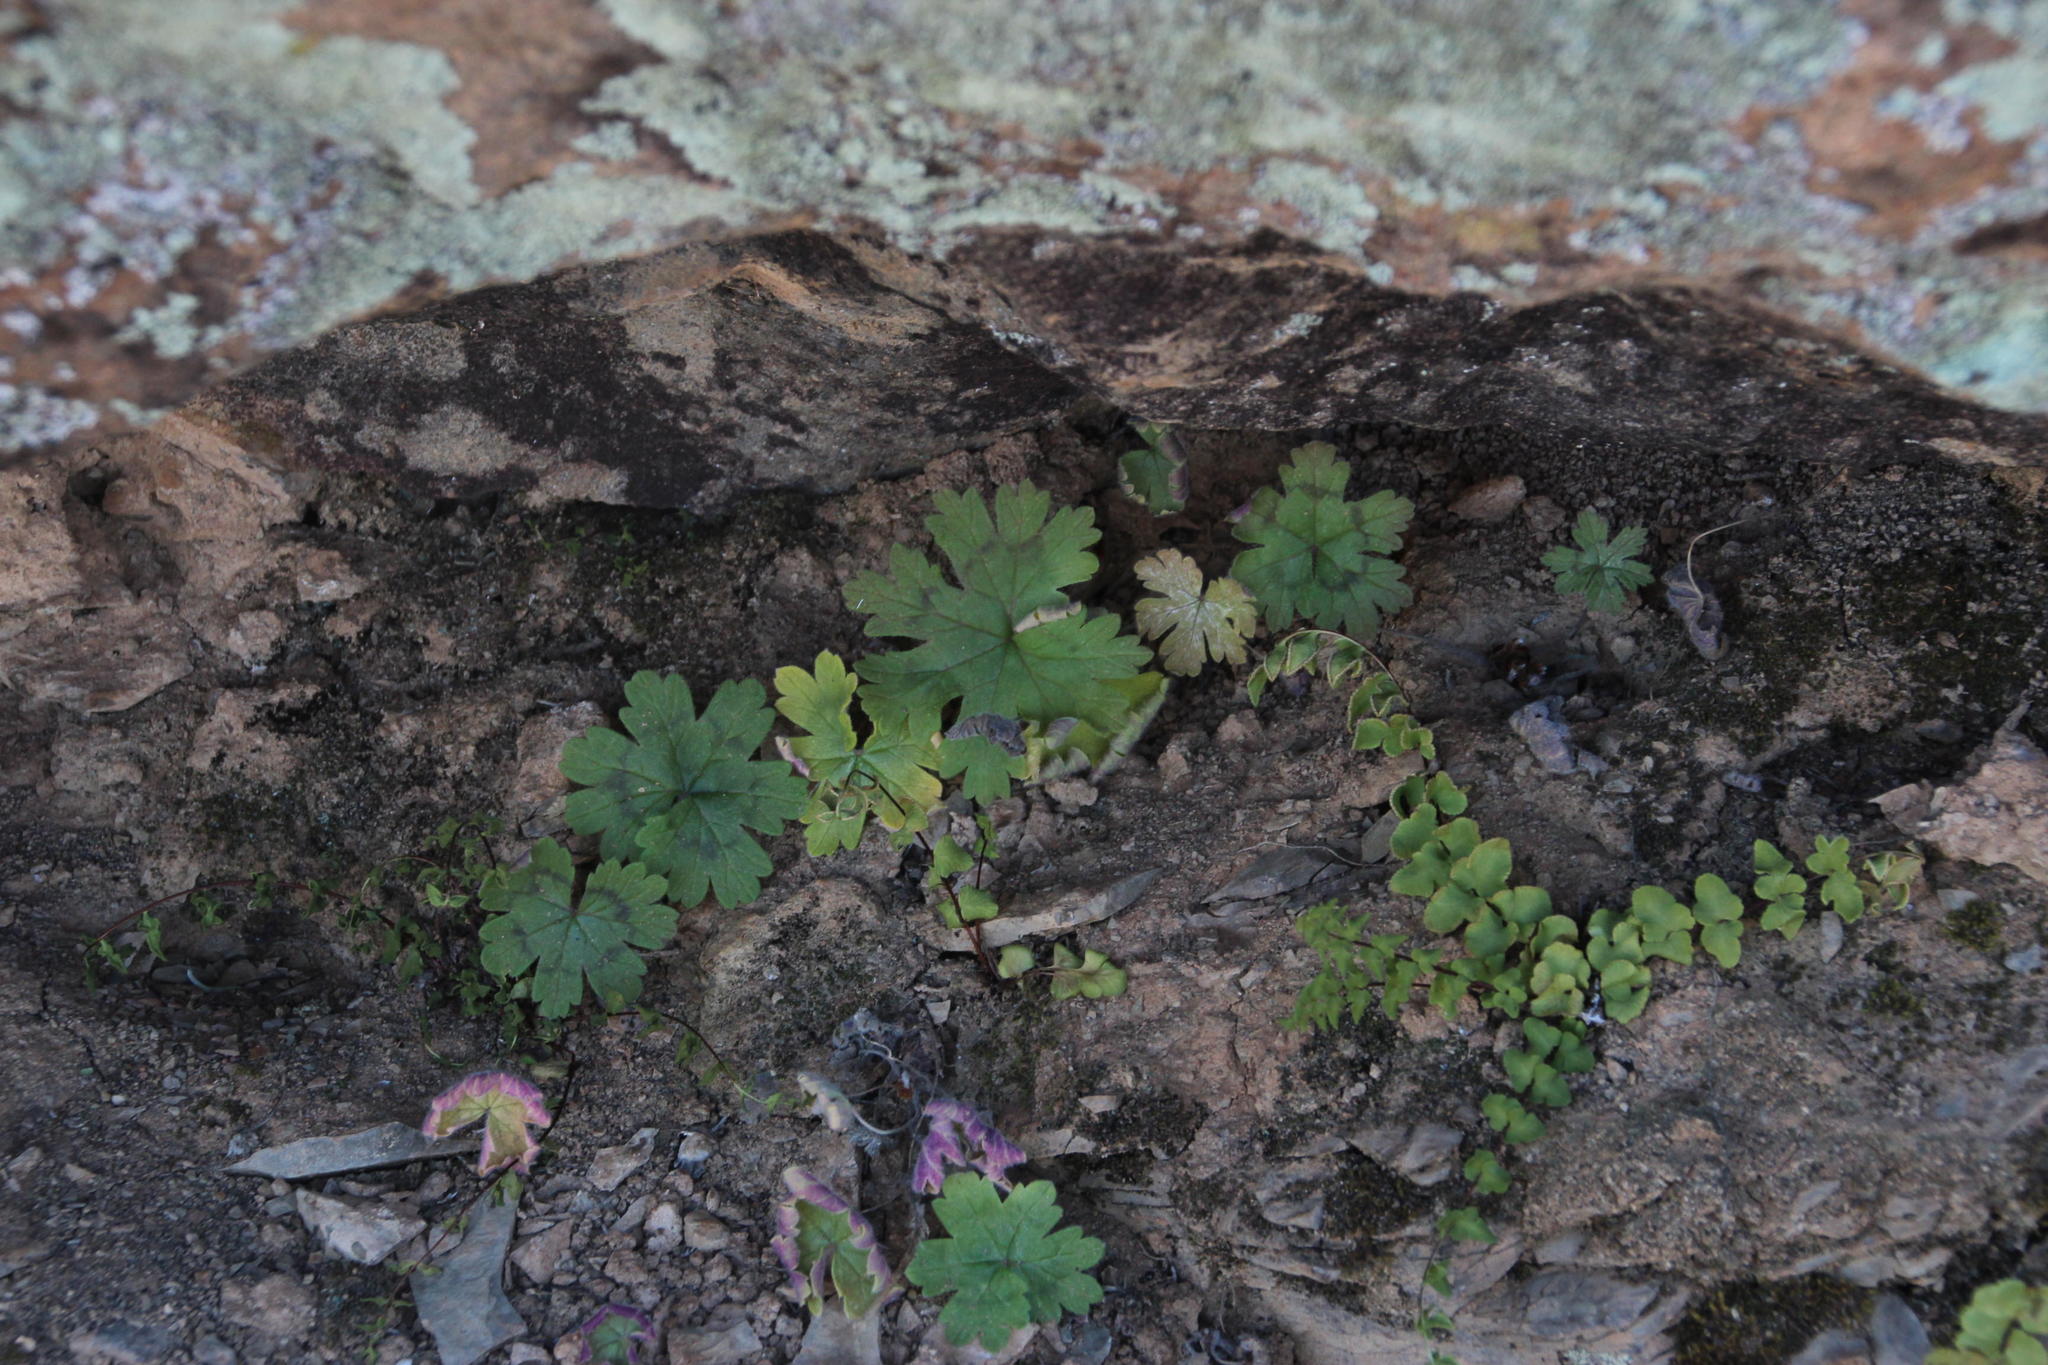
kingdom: Plantae
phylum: Tracheophyta
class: Magnoliopsida
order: Geraniales
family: Geraniaceae
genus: Pelargonium
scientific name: Pelargonium articulatum
